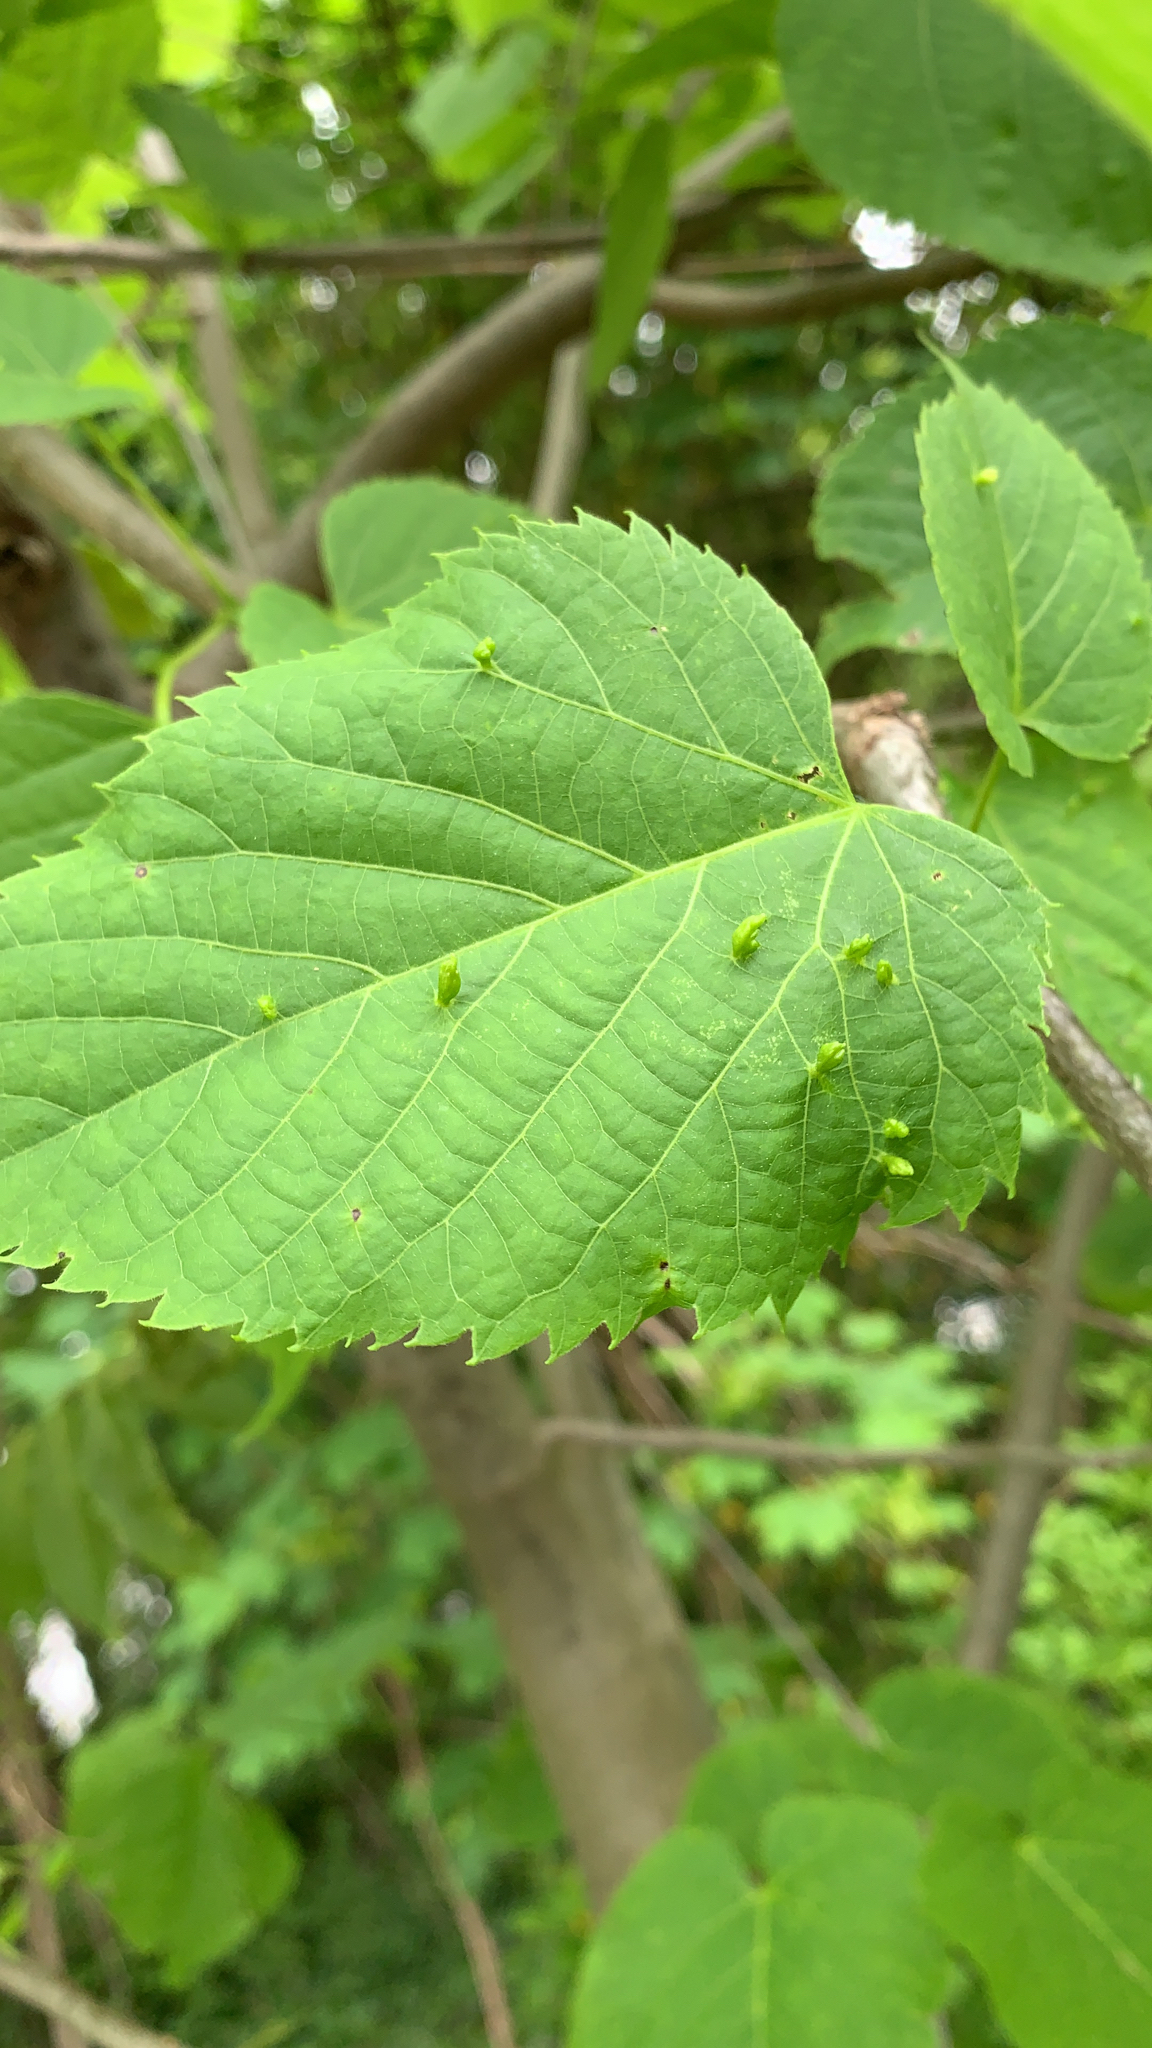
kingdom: Animalia
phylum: Arthropoda
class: Arachnida
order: Trombidiformes
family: Eriophyidae
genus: Eriophyes
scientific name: Eriophyes tiliae
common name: Red nail gall mite
